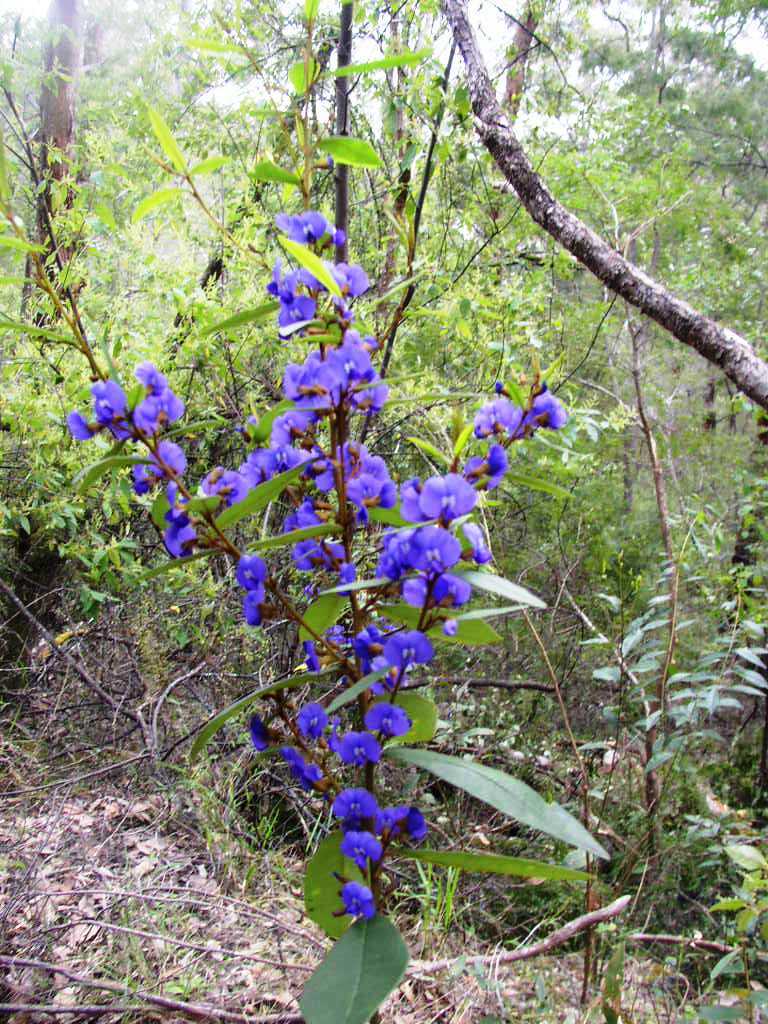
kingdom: Plantae
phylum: Tracheophyta
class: Magnoliopsida
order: Fabales
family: Fabaceae
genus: Hovea
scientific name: Hovea elliptica
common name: Tree hovea
